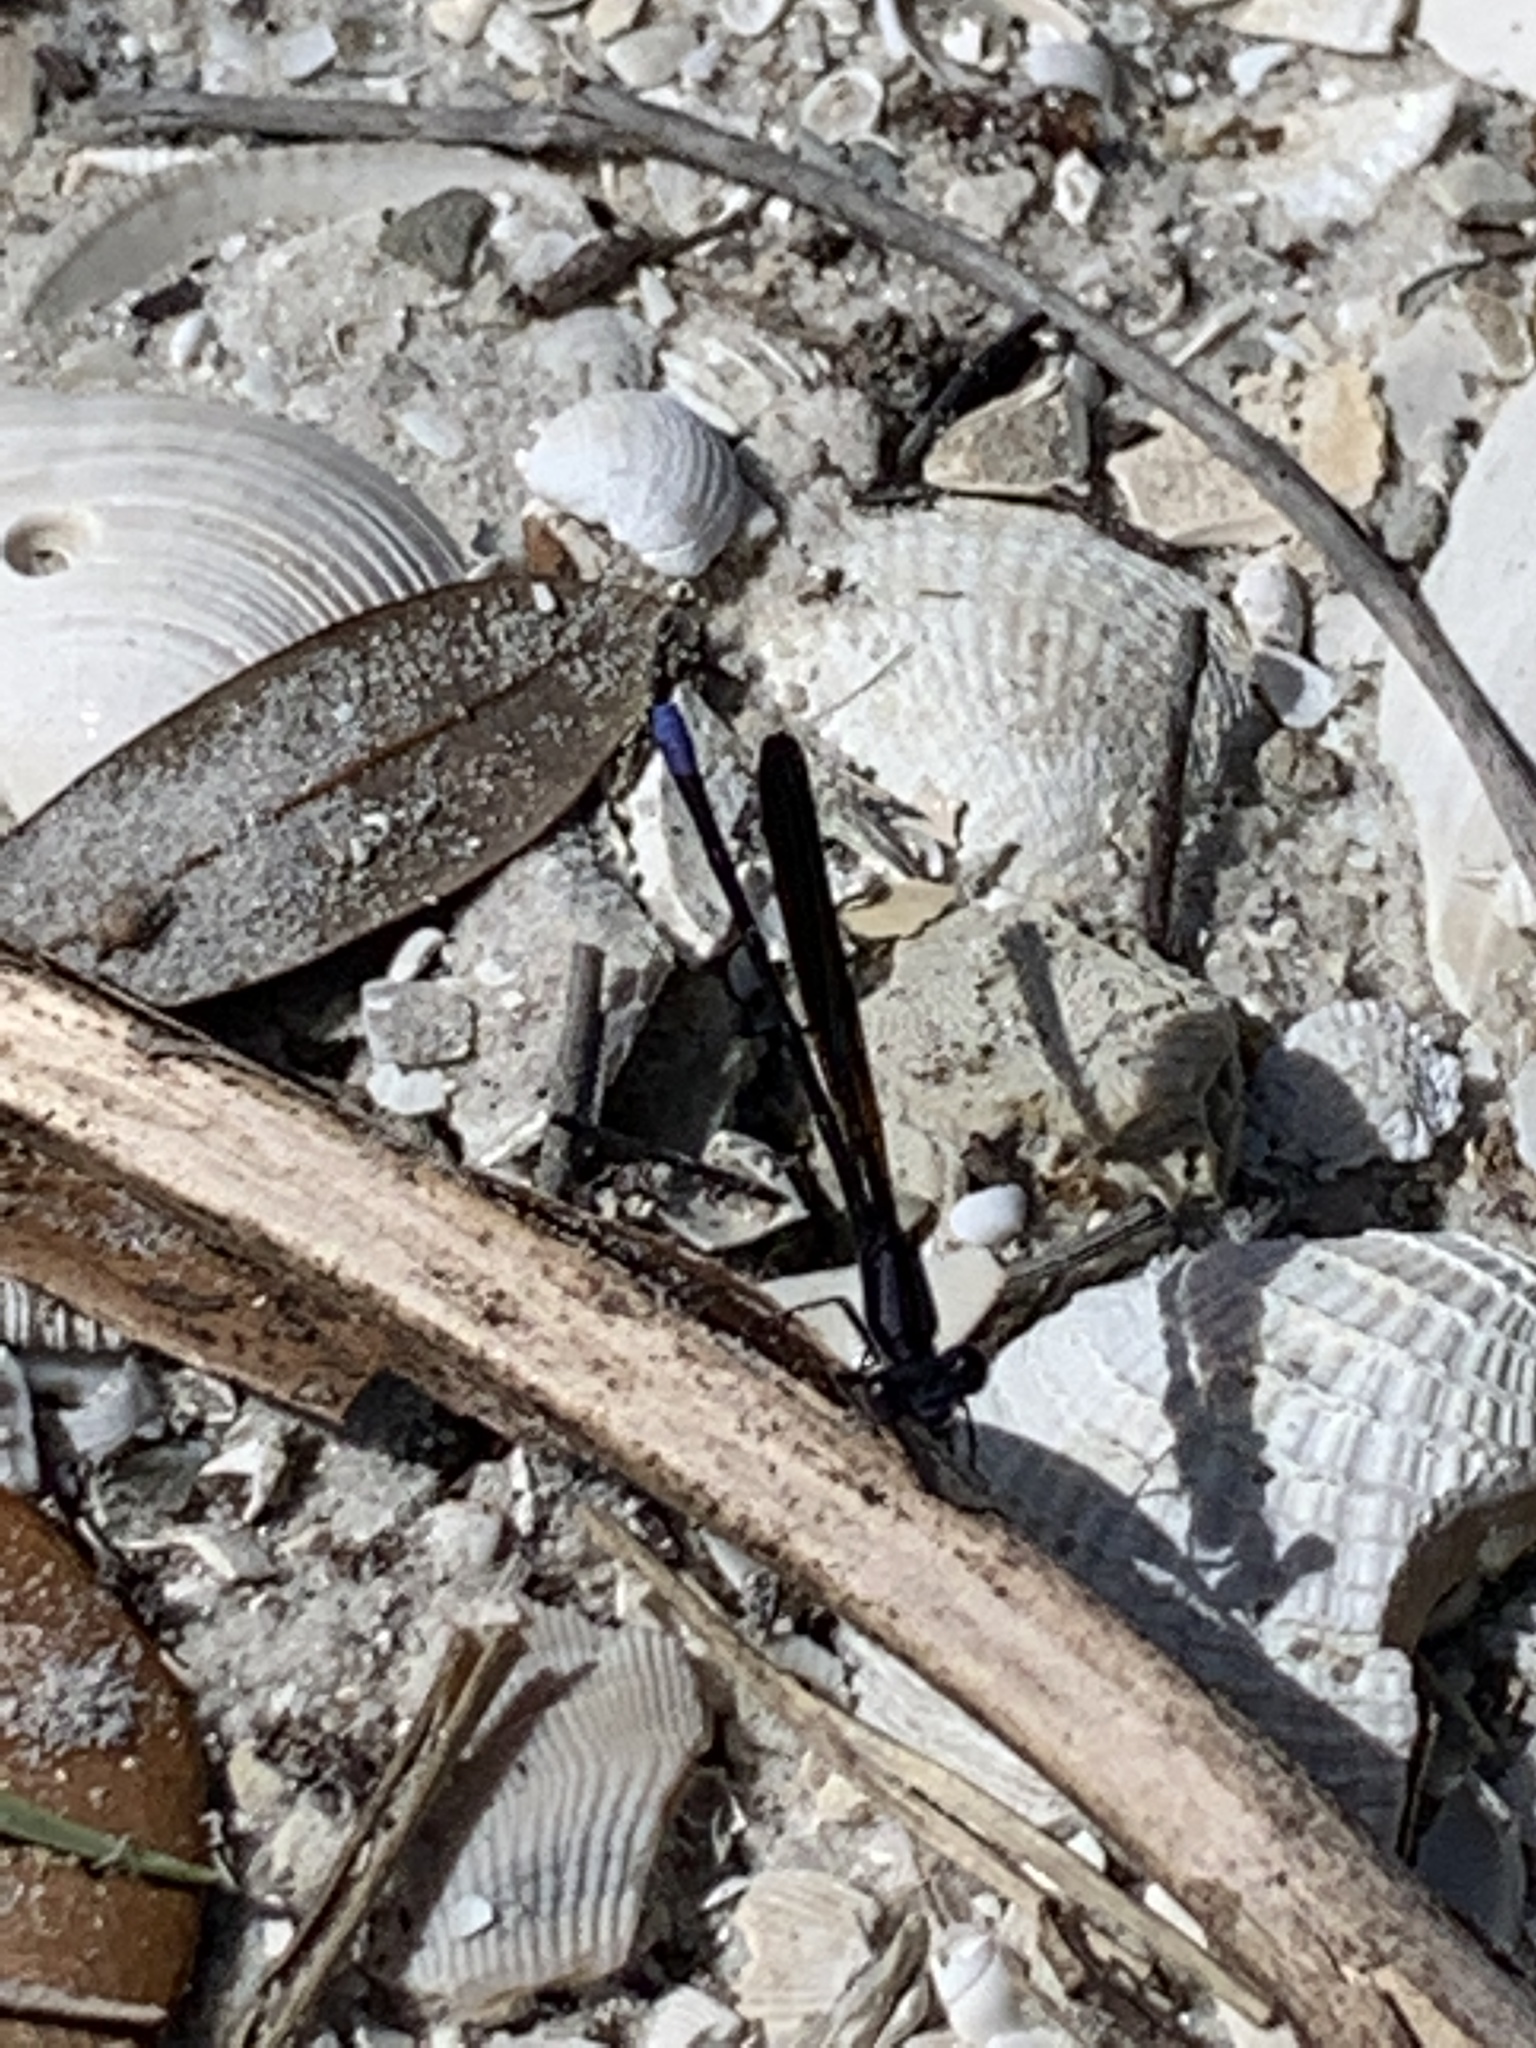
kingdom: Animalia
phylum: Arthropoda
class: Insecta
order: Odonata
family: Coenagrionidae
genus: Argia
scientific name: Argia fumipennis
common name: Variable dancer
